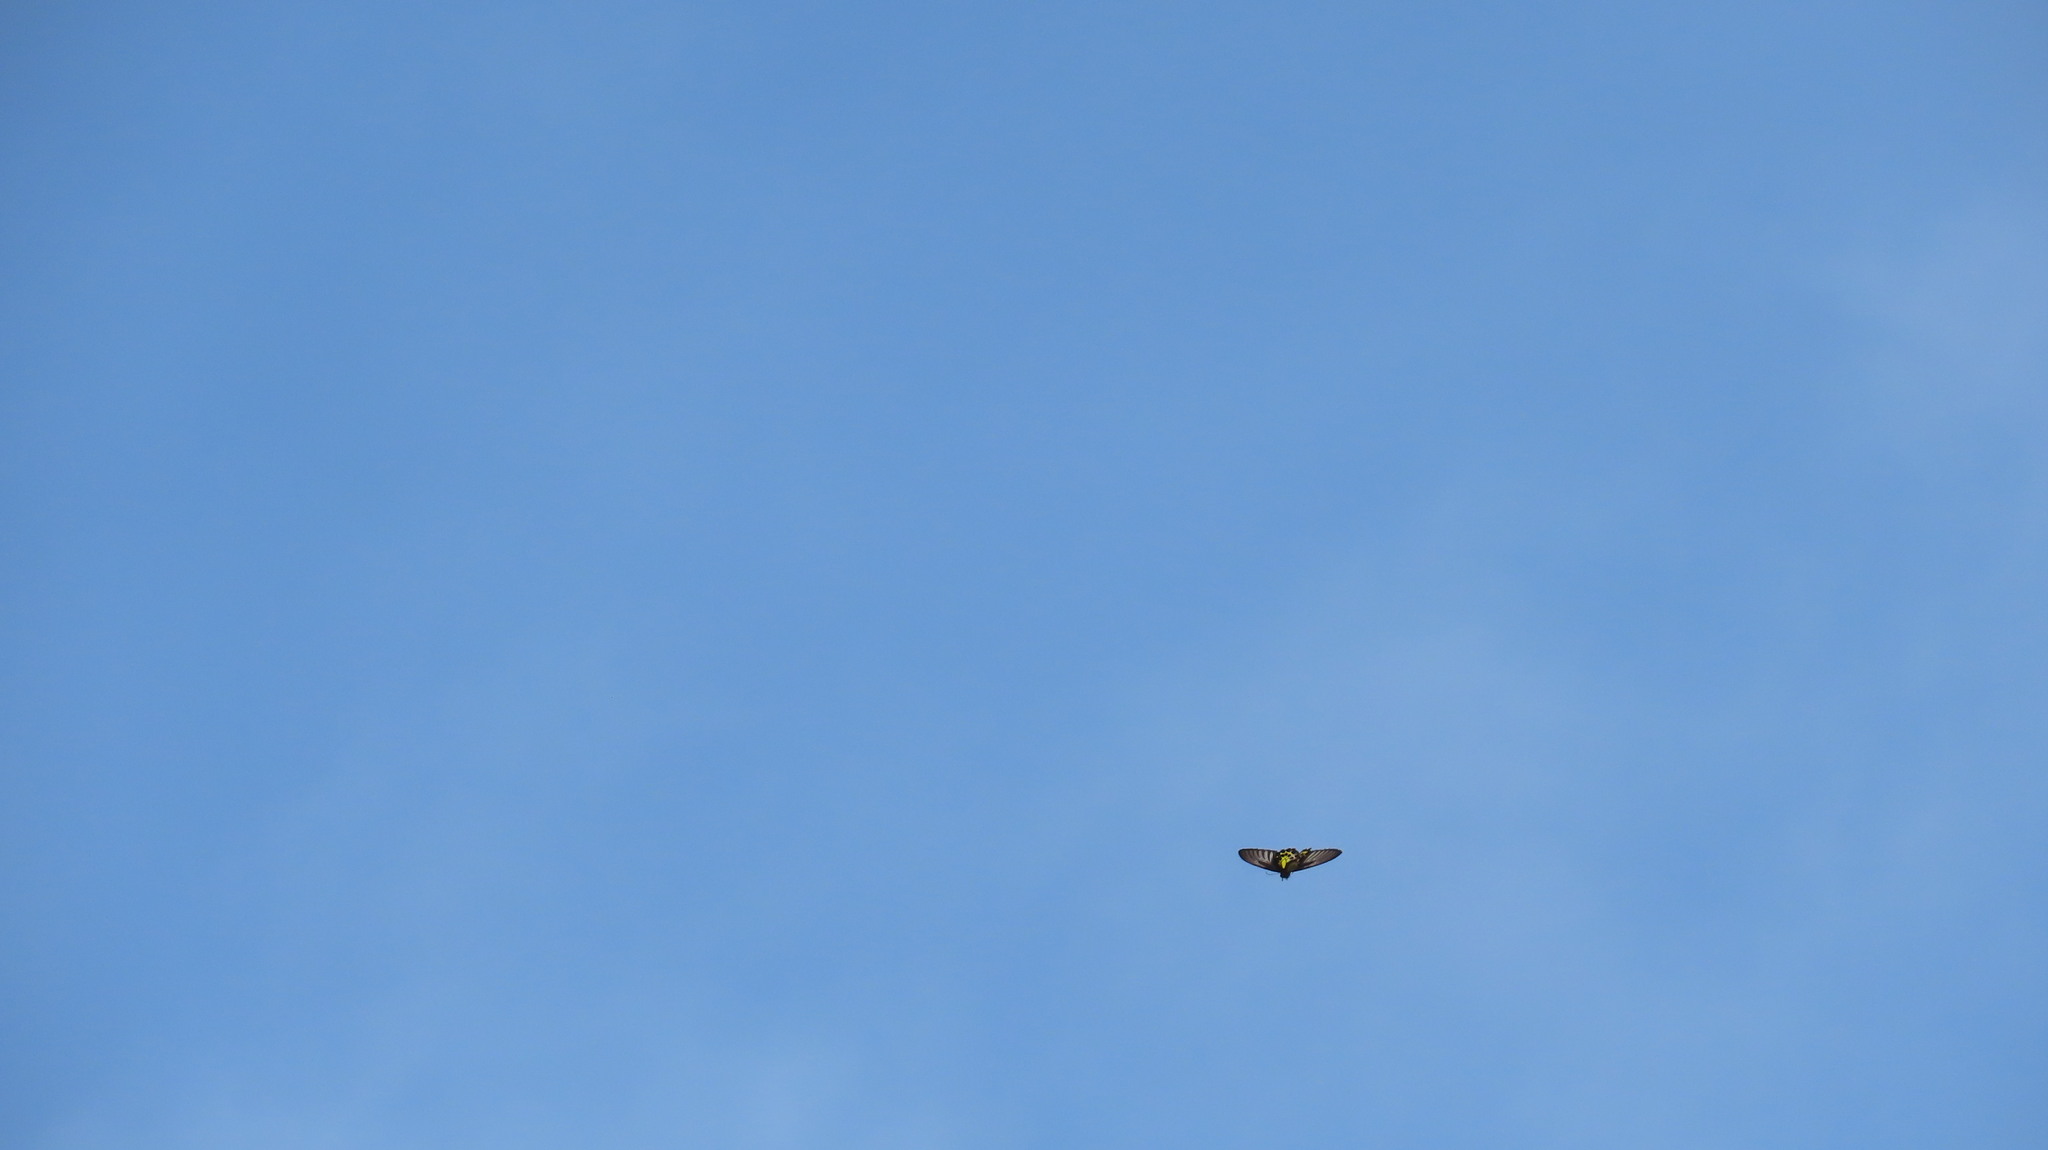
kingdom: Animalia
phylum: Arthropoda
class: Insecta
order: Lepidoptera
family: Papilionidae
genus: Troides
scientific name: Troides minos
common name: Malabar birdwing
